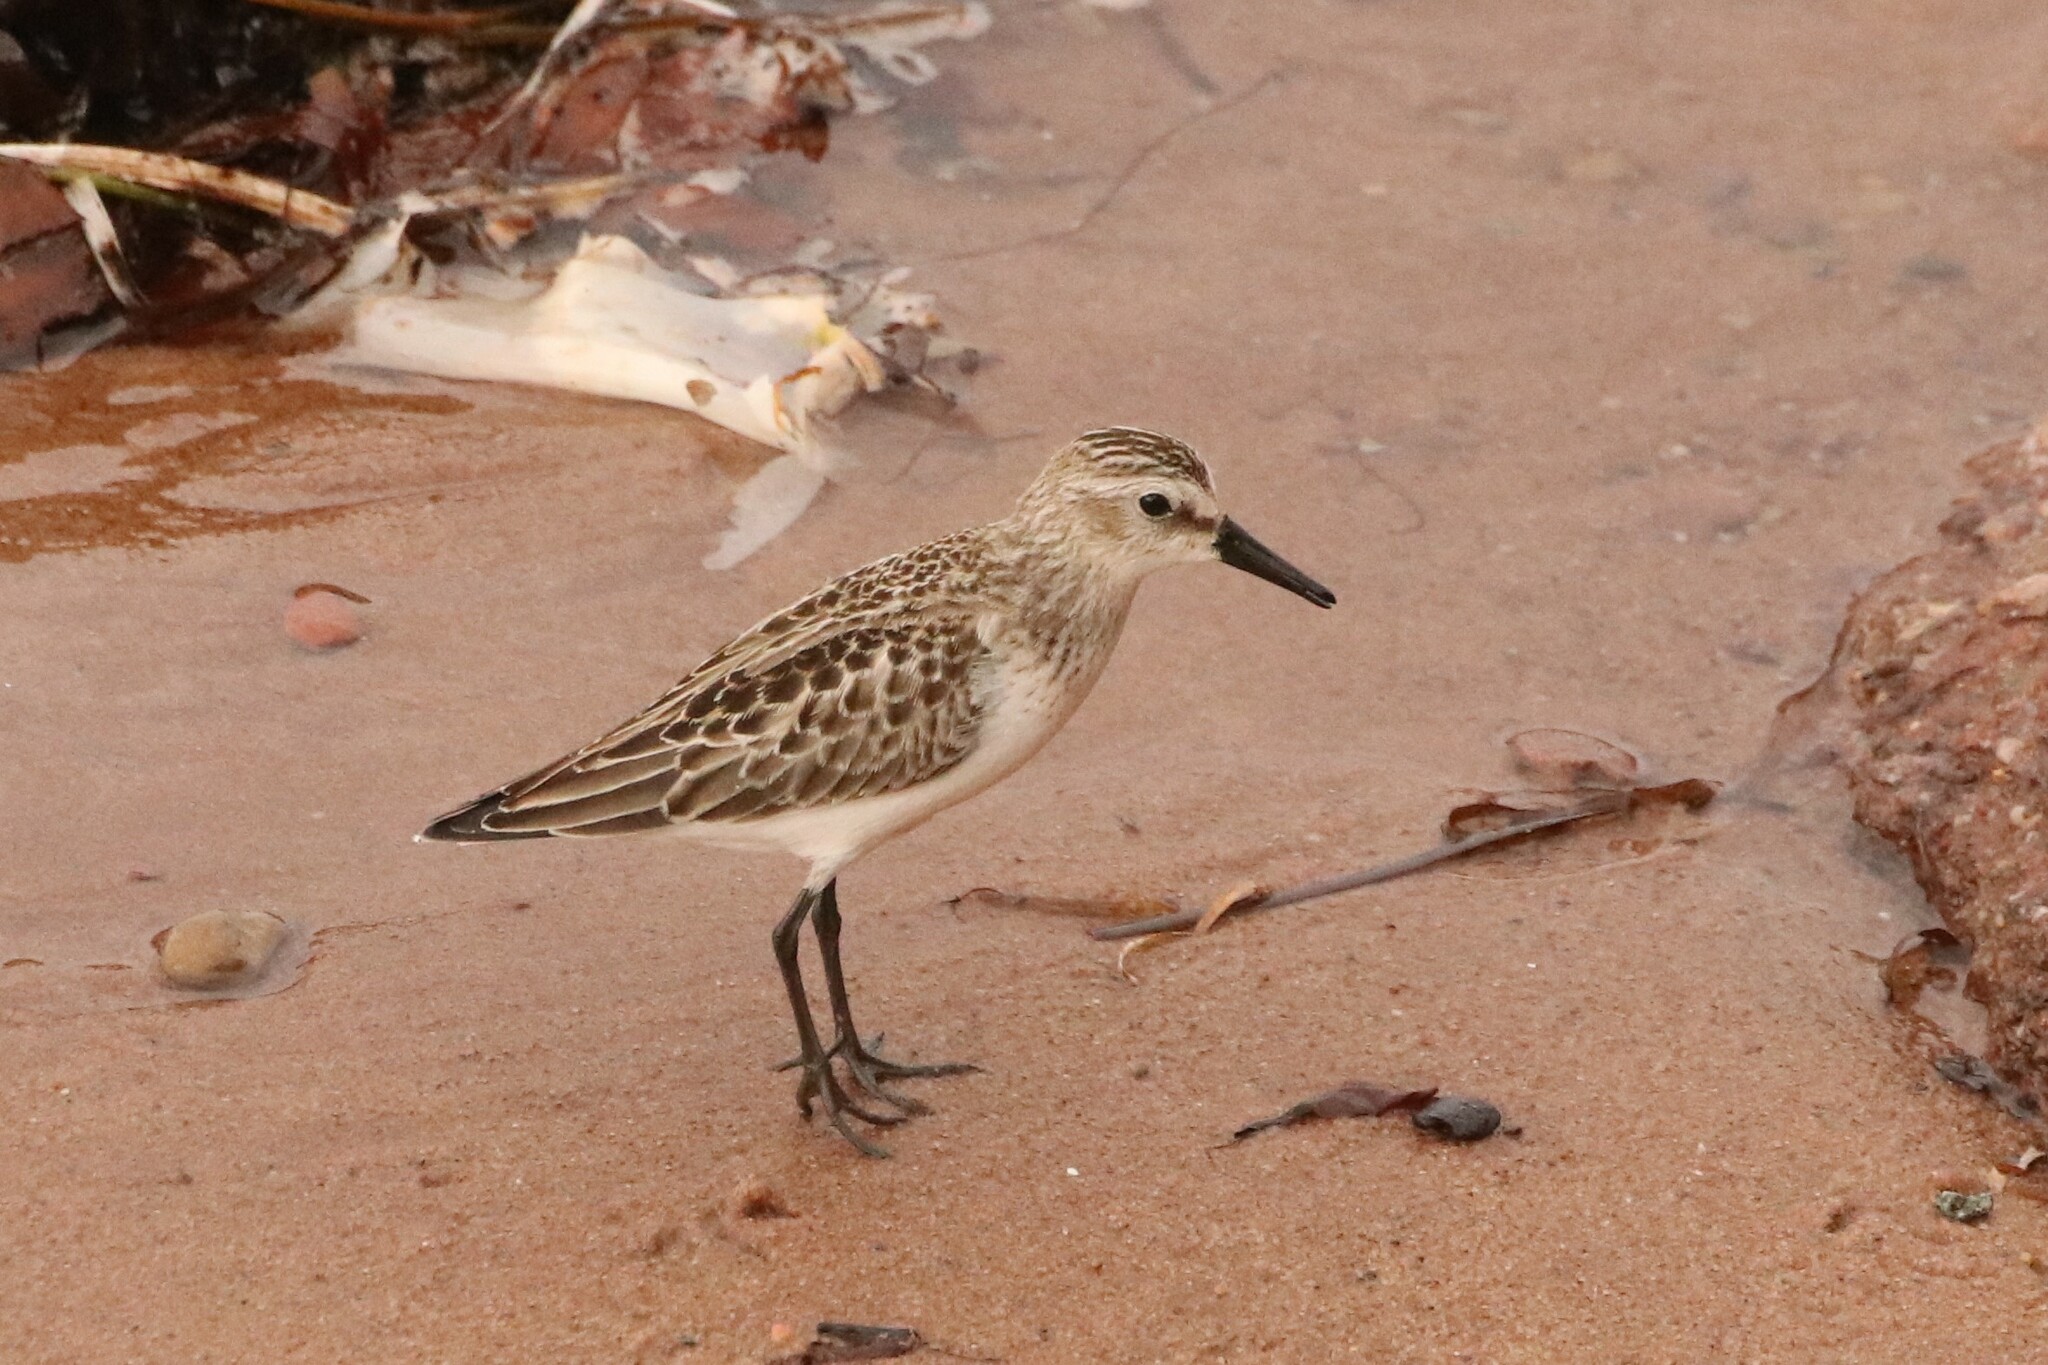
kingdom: Animalia
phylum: Chordata
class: Aves
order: Charadriiformes
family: Scolopacidae
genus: Calidris
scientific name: Calidris pusilla
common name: Semipalmated sandpiper
